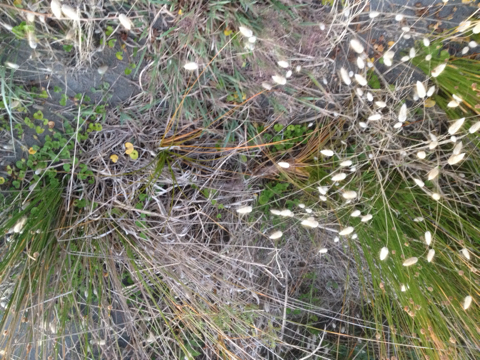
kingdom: Plantae
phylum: Tracheophyta
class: Liliopsida
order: Poales
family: Cyperaceae
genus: Ficinia
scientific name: Ficinia spiralis
